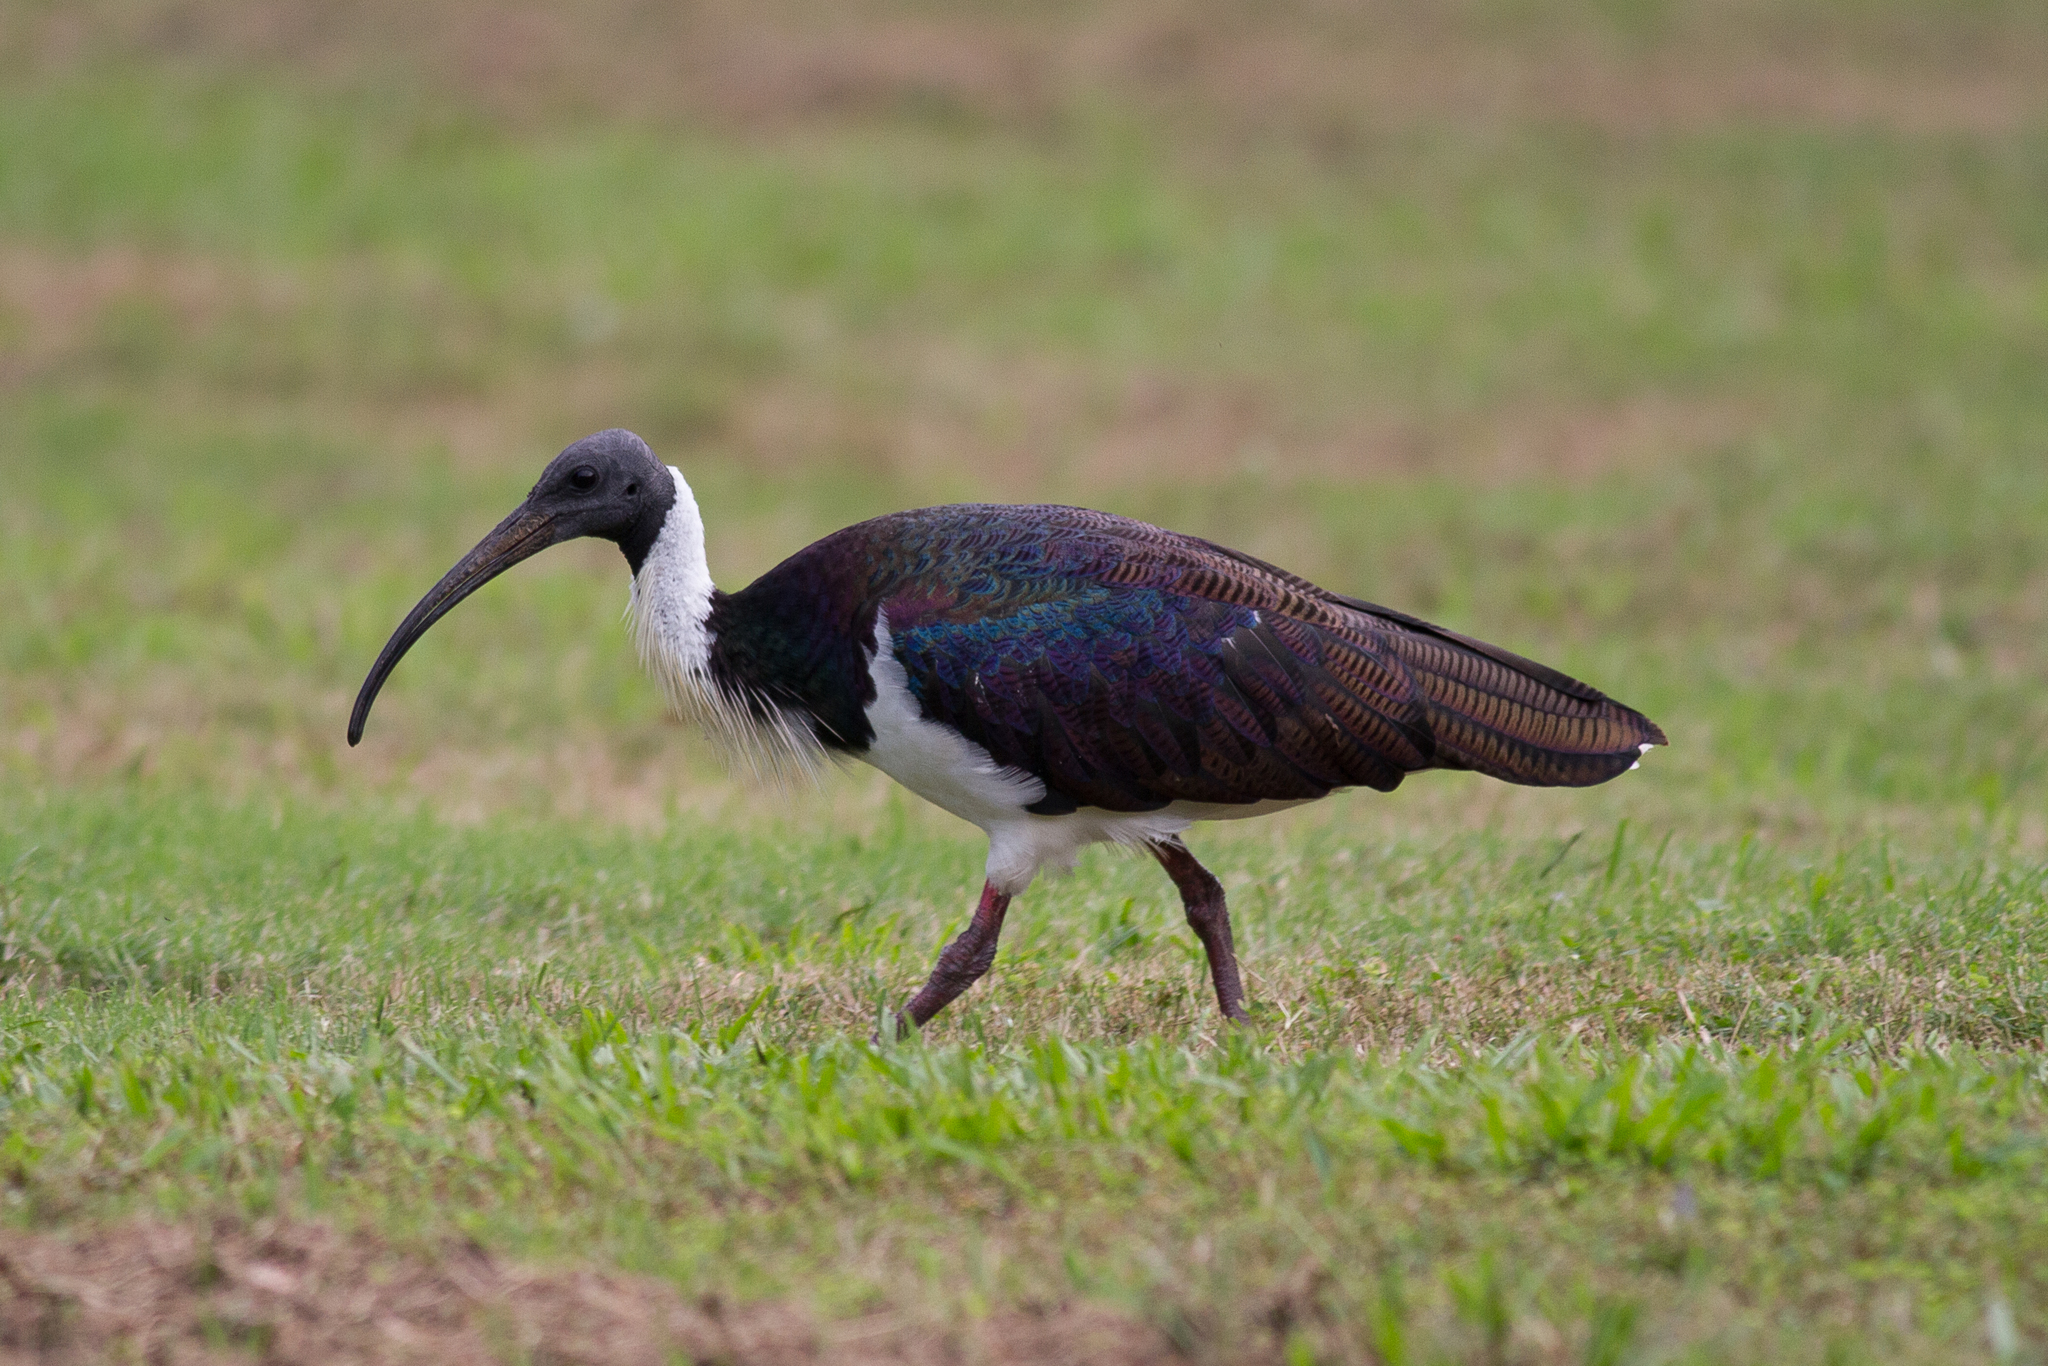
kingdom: Animalia
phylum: Chordata
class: Aves
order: Pelecaniformes
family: Threskiornithidae
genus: Threskiornis
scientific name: Threskiornis spinicollis
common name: Straw-necked ibis
